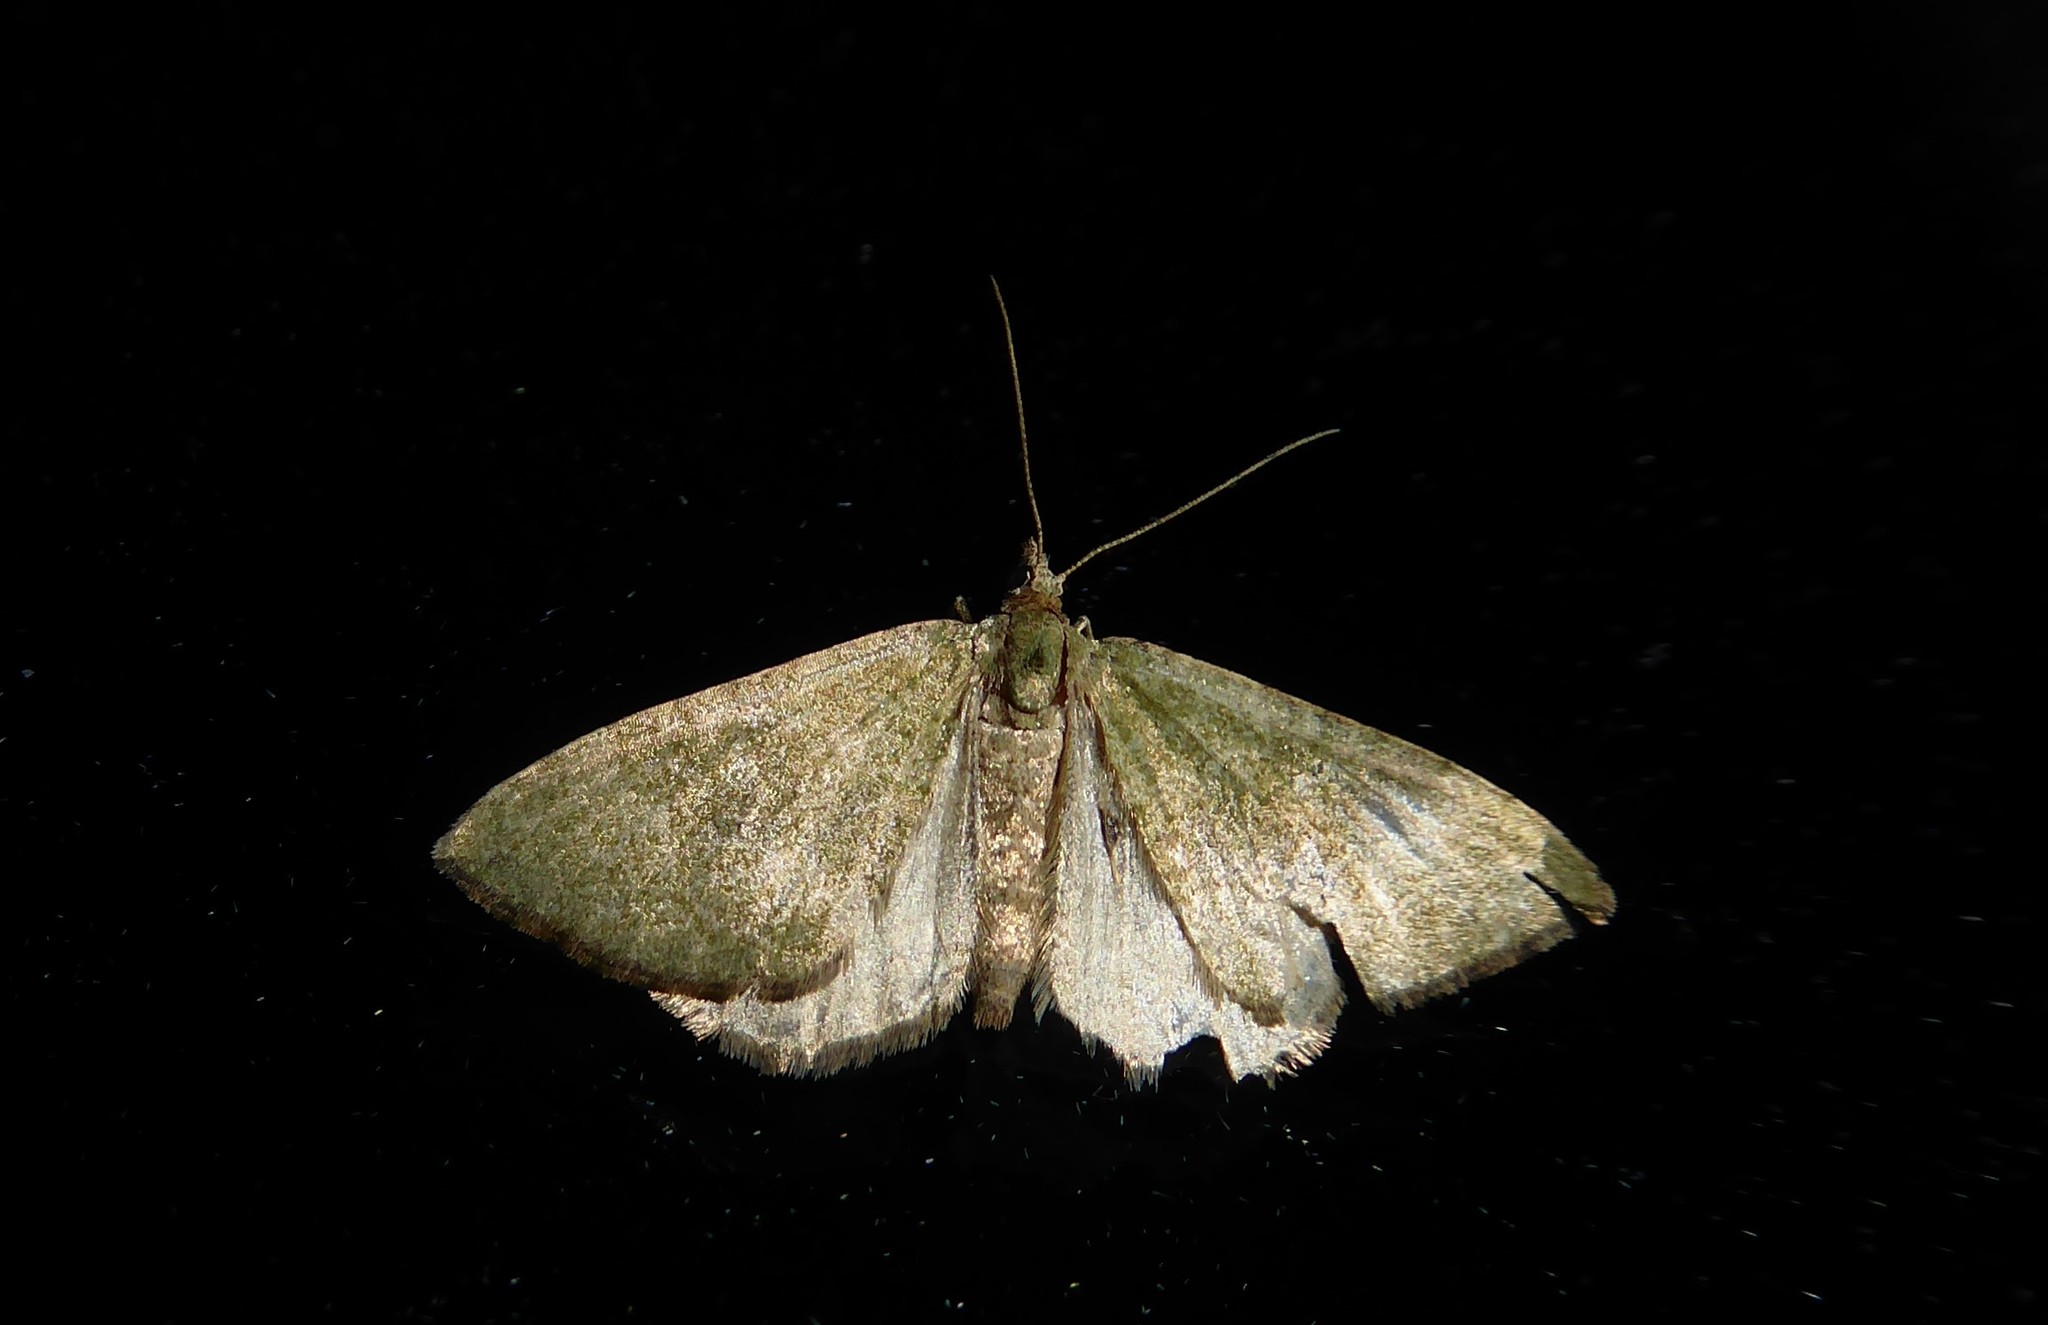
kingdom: Animalia
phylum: Arthropoda
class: Insecta
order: Lepidoptera
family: Geometridae
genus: Epyaxa
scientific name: Epyaxa rosearia
